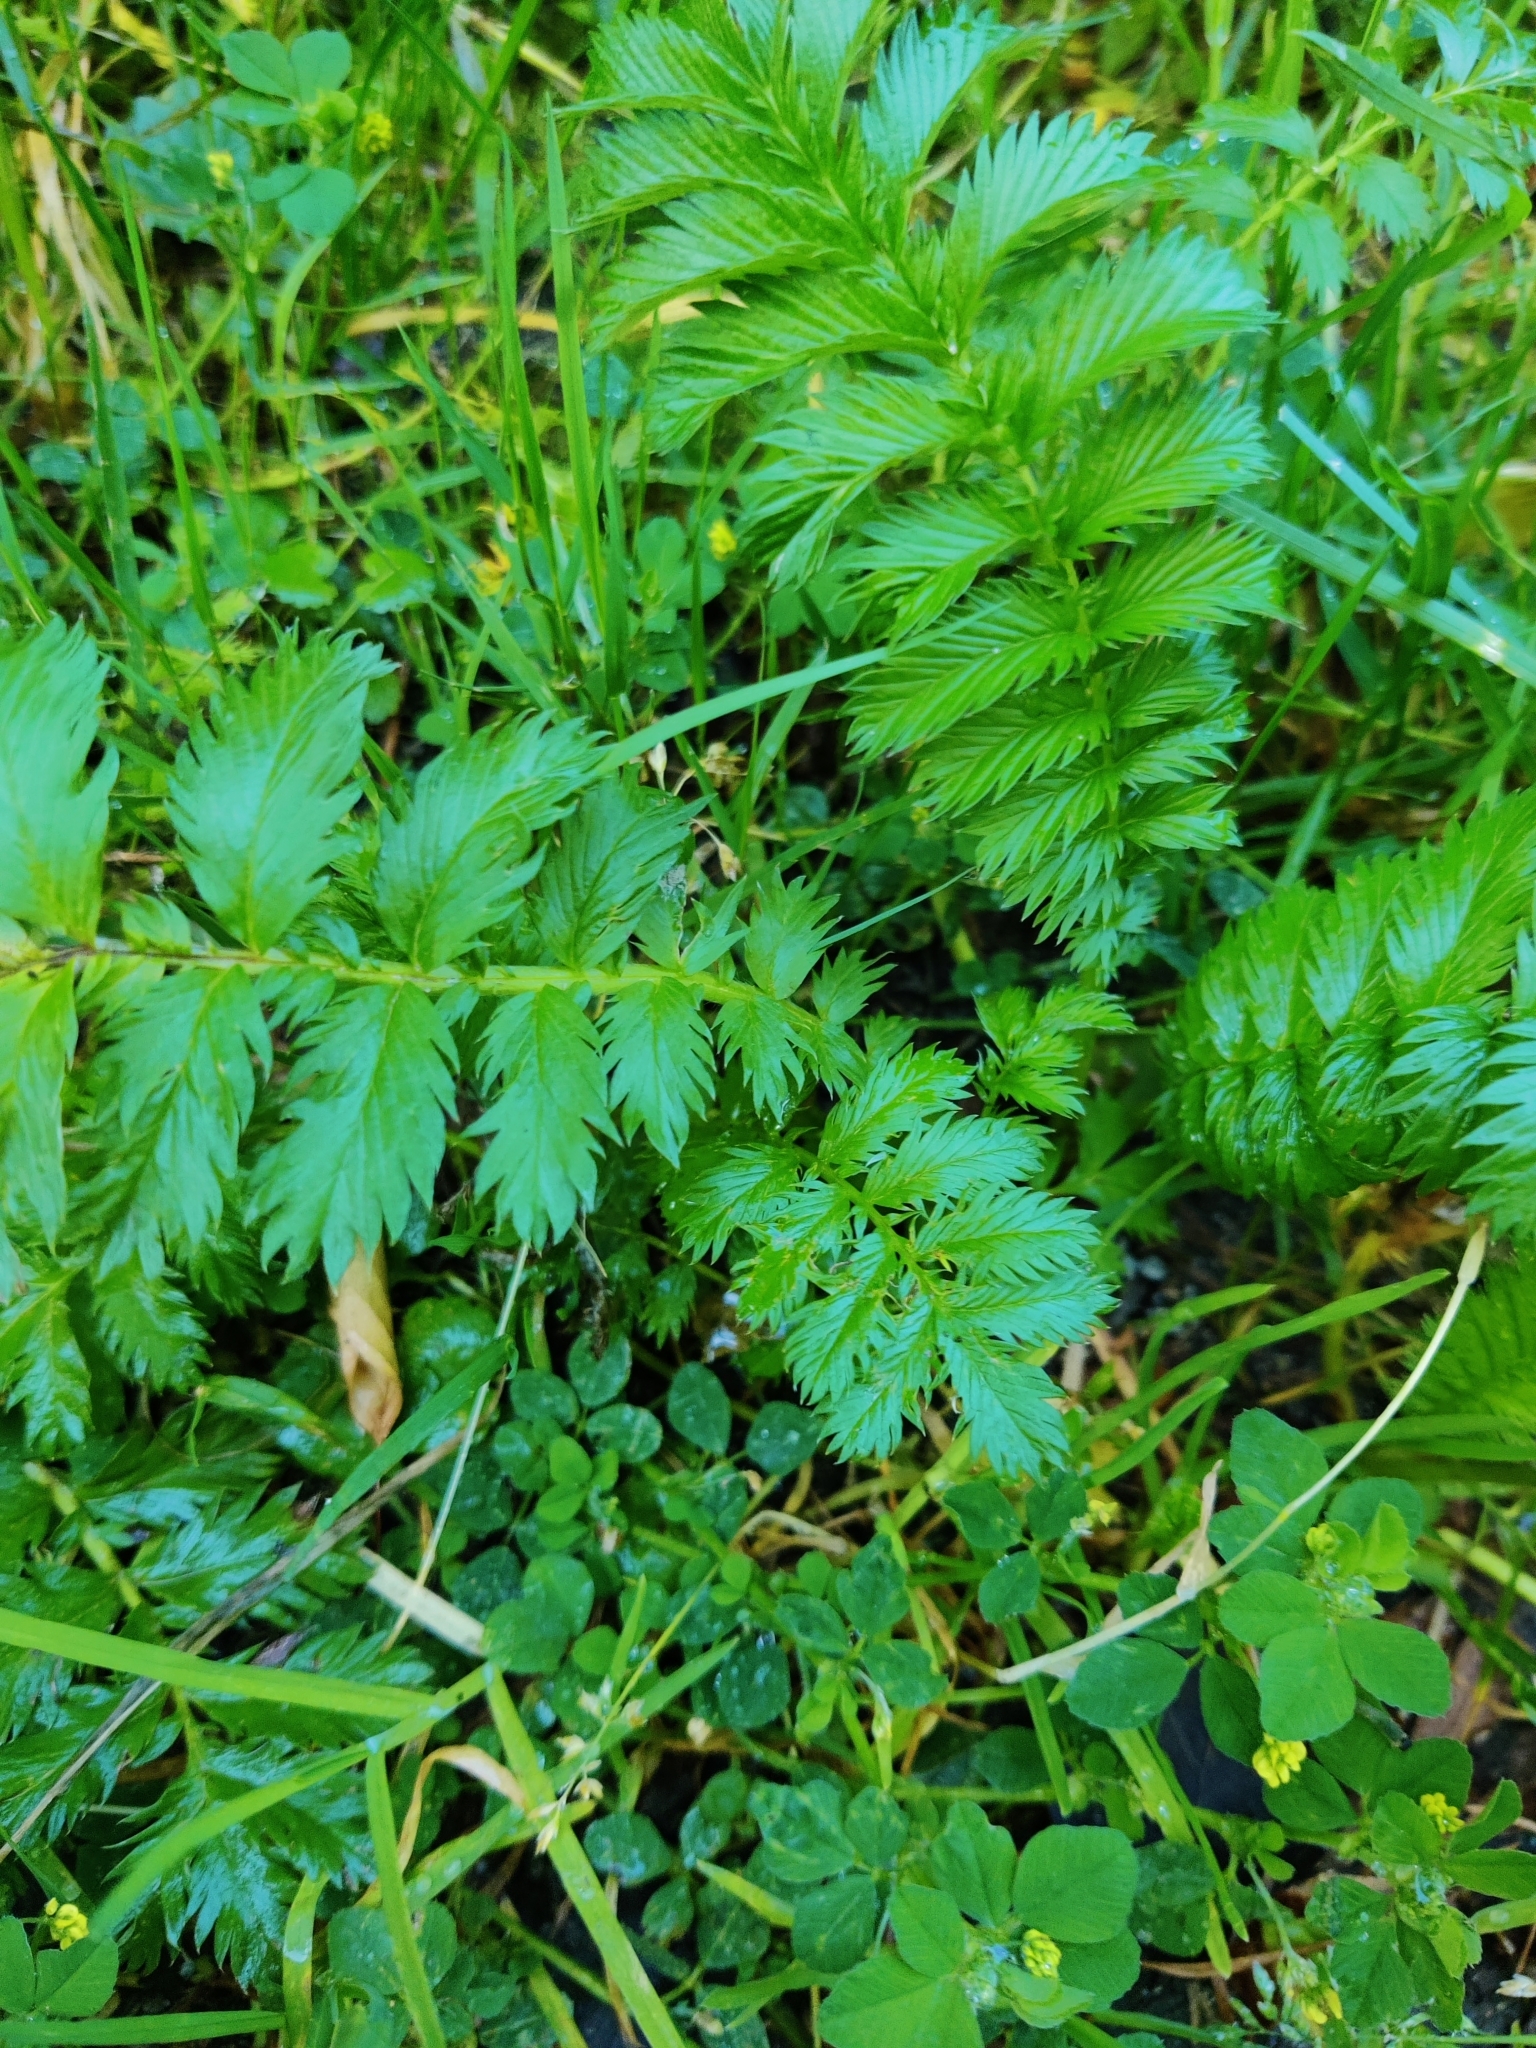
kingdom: Plantae
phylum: Tracheophyta
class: Magnoliopsida
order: Rosales
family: Rosaceae
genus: Argentina
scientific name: Argentina anserina
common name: Common silverweed
